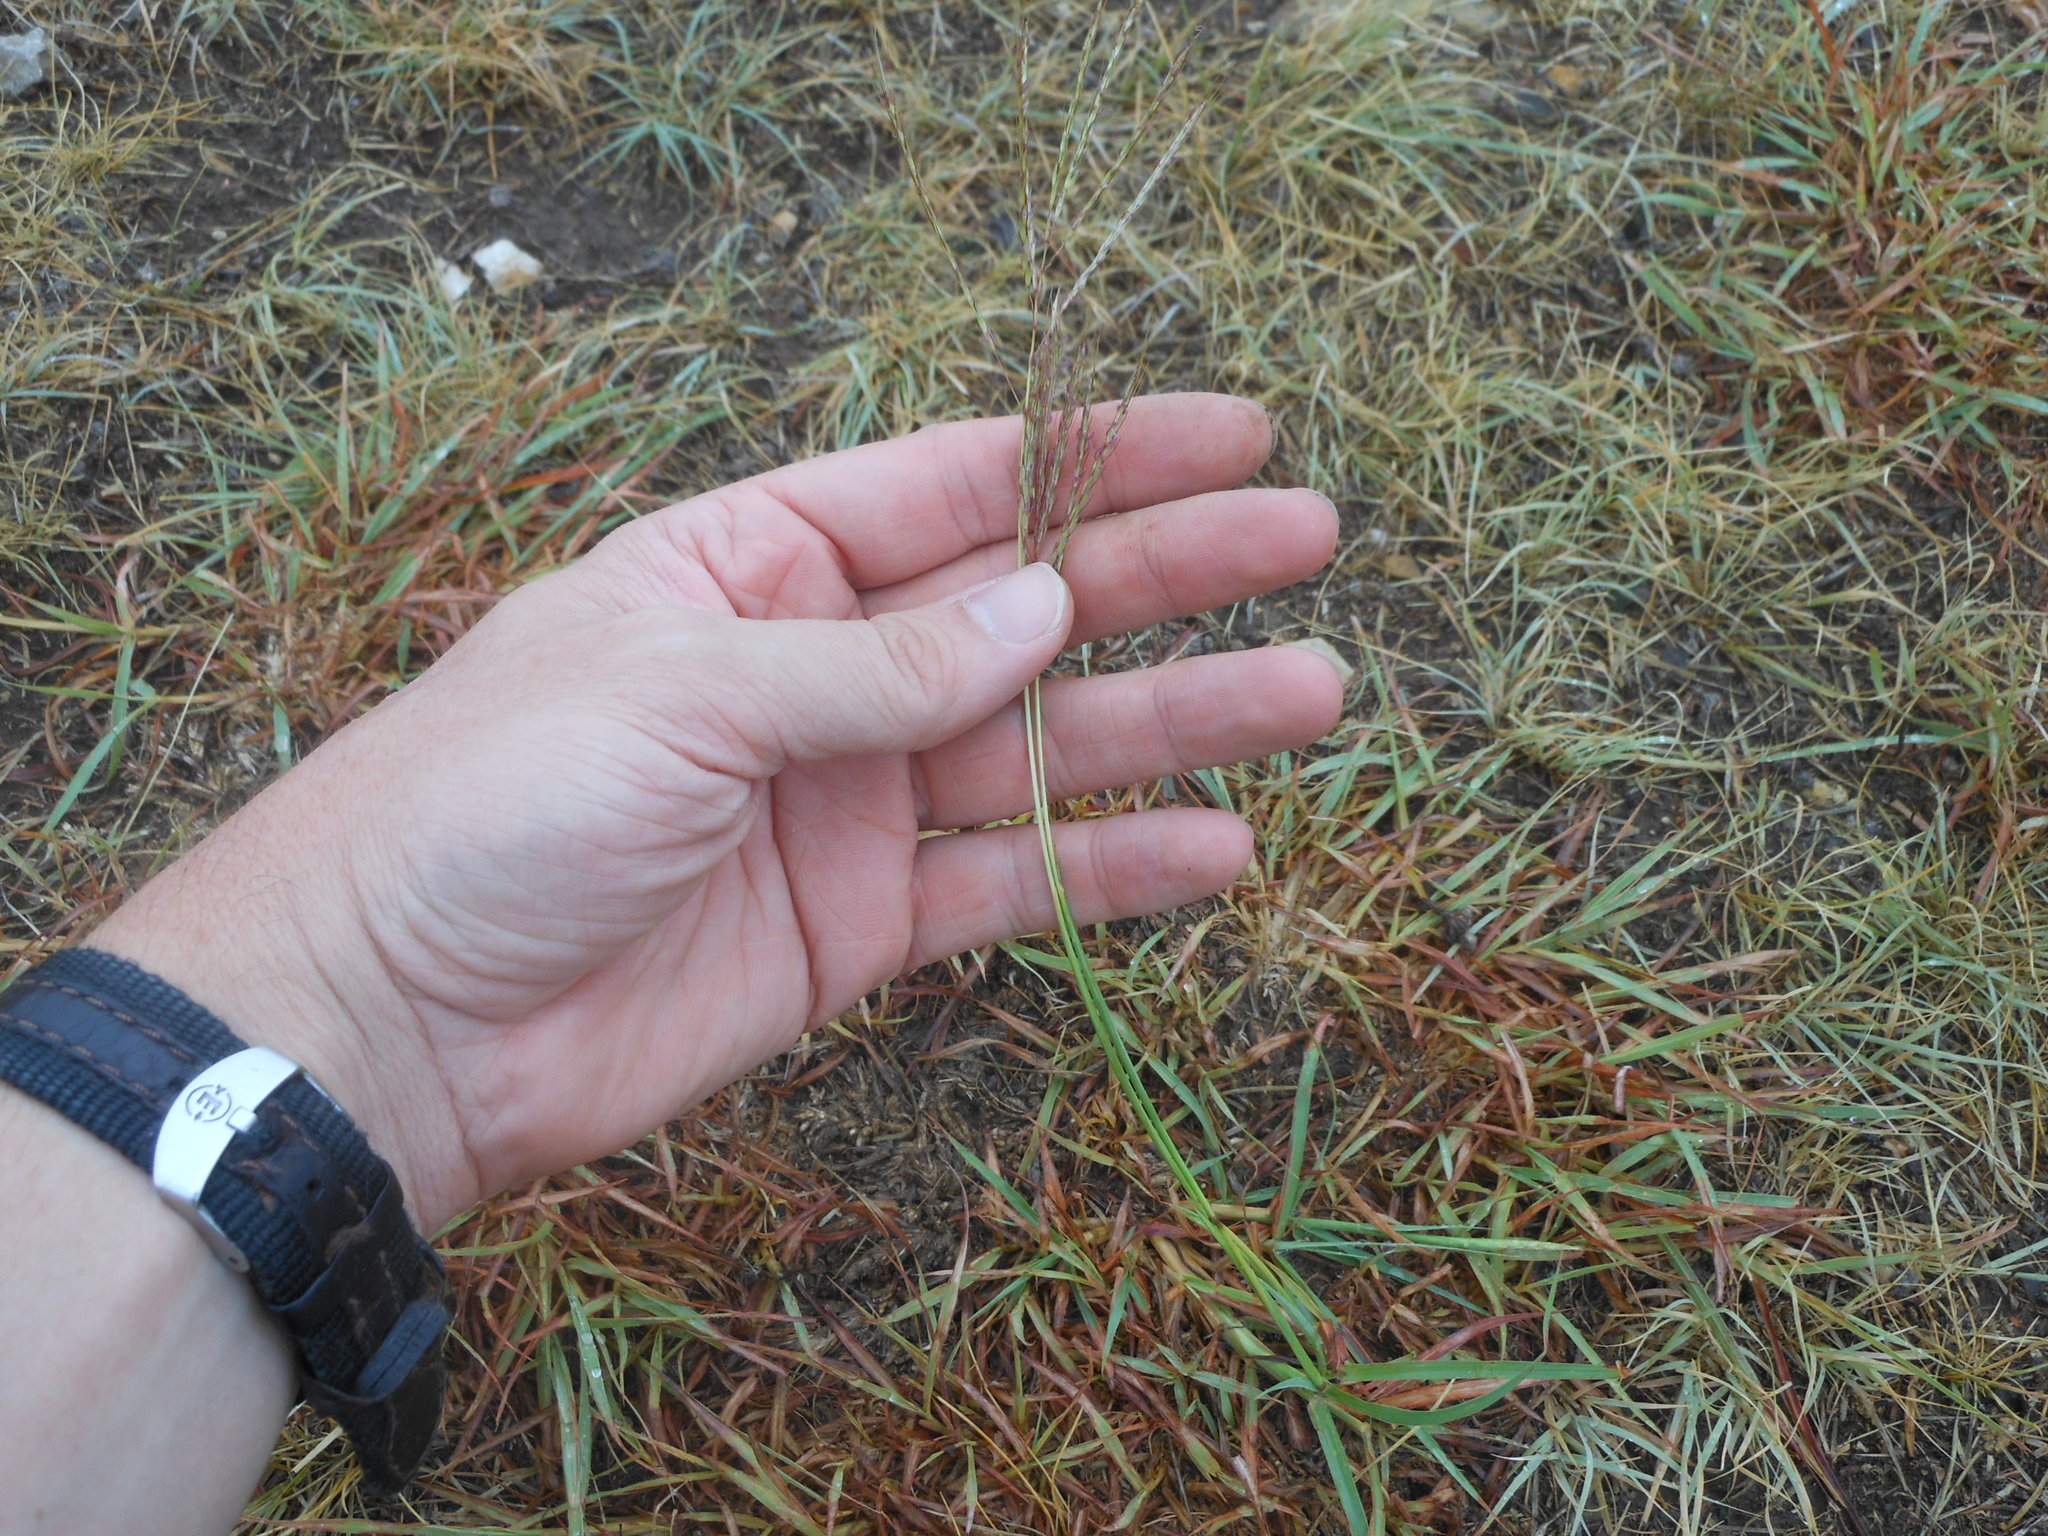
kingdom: Plantae
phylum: Tracheophyta
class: Liliopsida
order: Poales
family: Poaceae
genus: Bothriochloa
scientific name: Bothriochloa ischaemum
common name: Yellow bluestem
